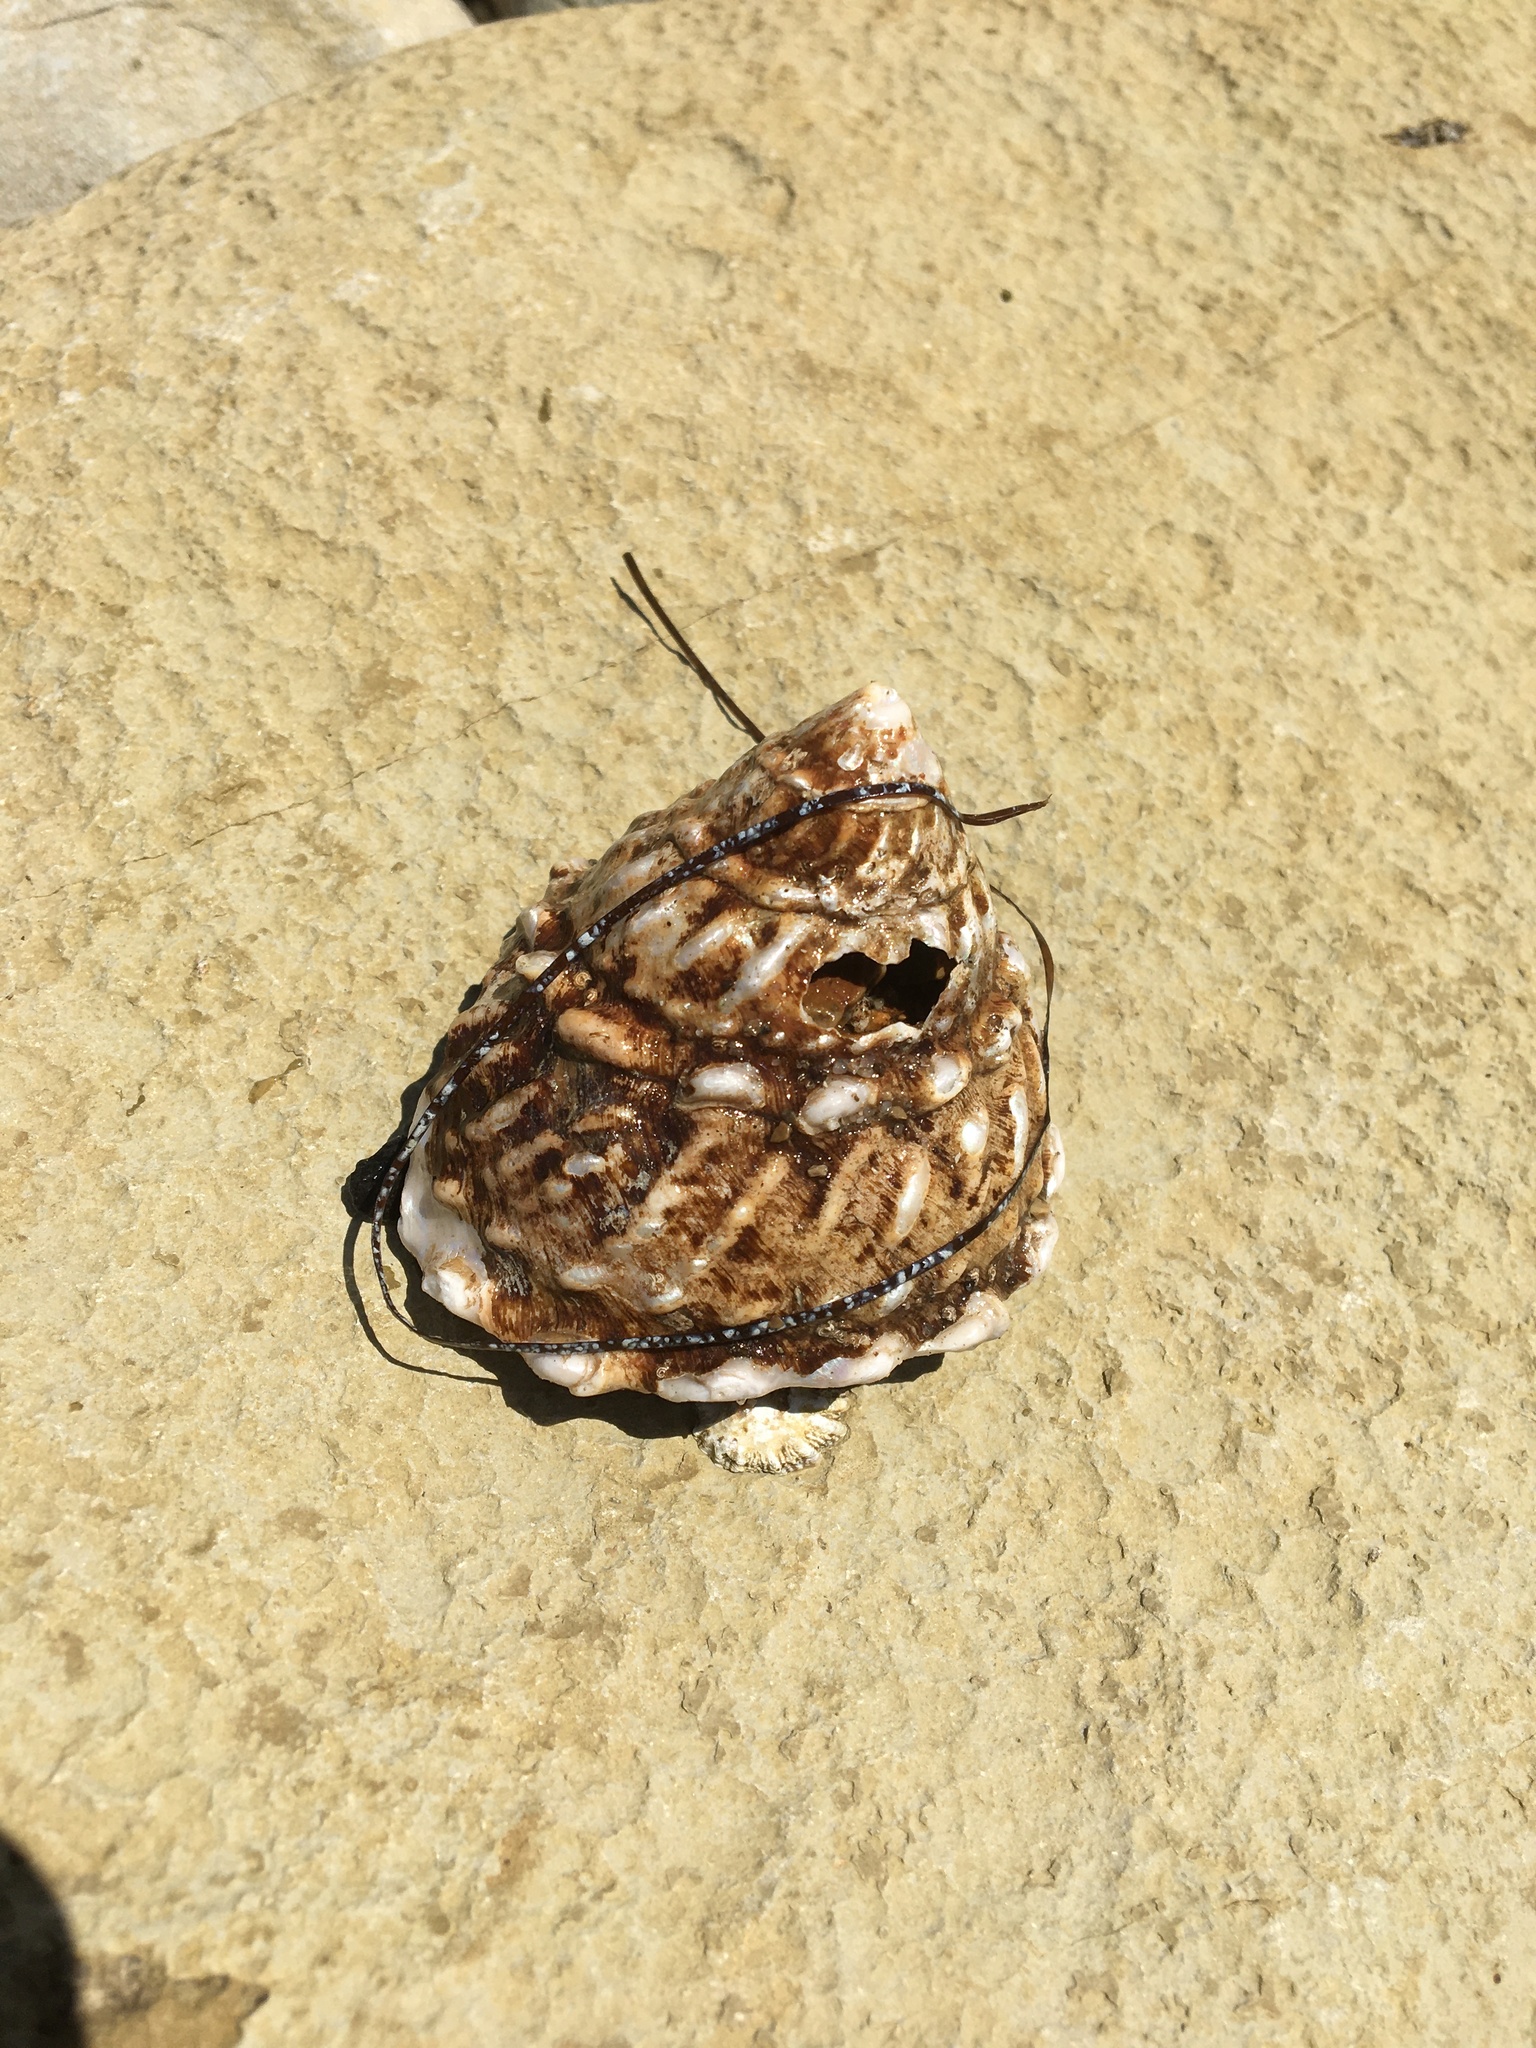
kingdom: Animalia
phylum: Mollusca
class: Gastropoda
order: Trochida
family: Turbinidae
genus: Megastraea
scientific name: Megastraea undosa
